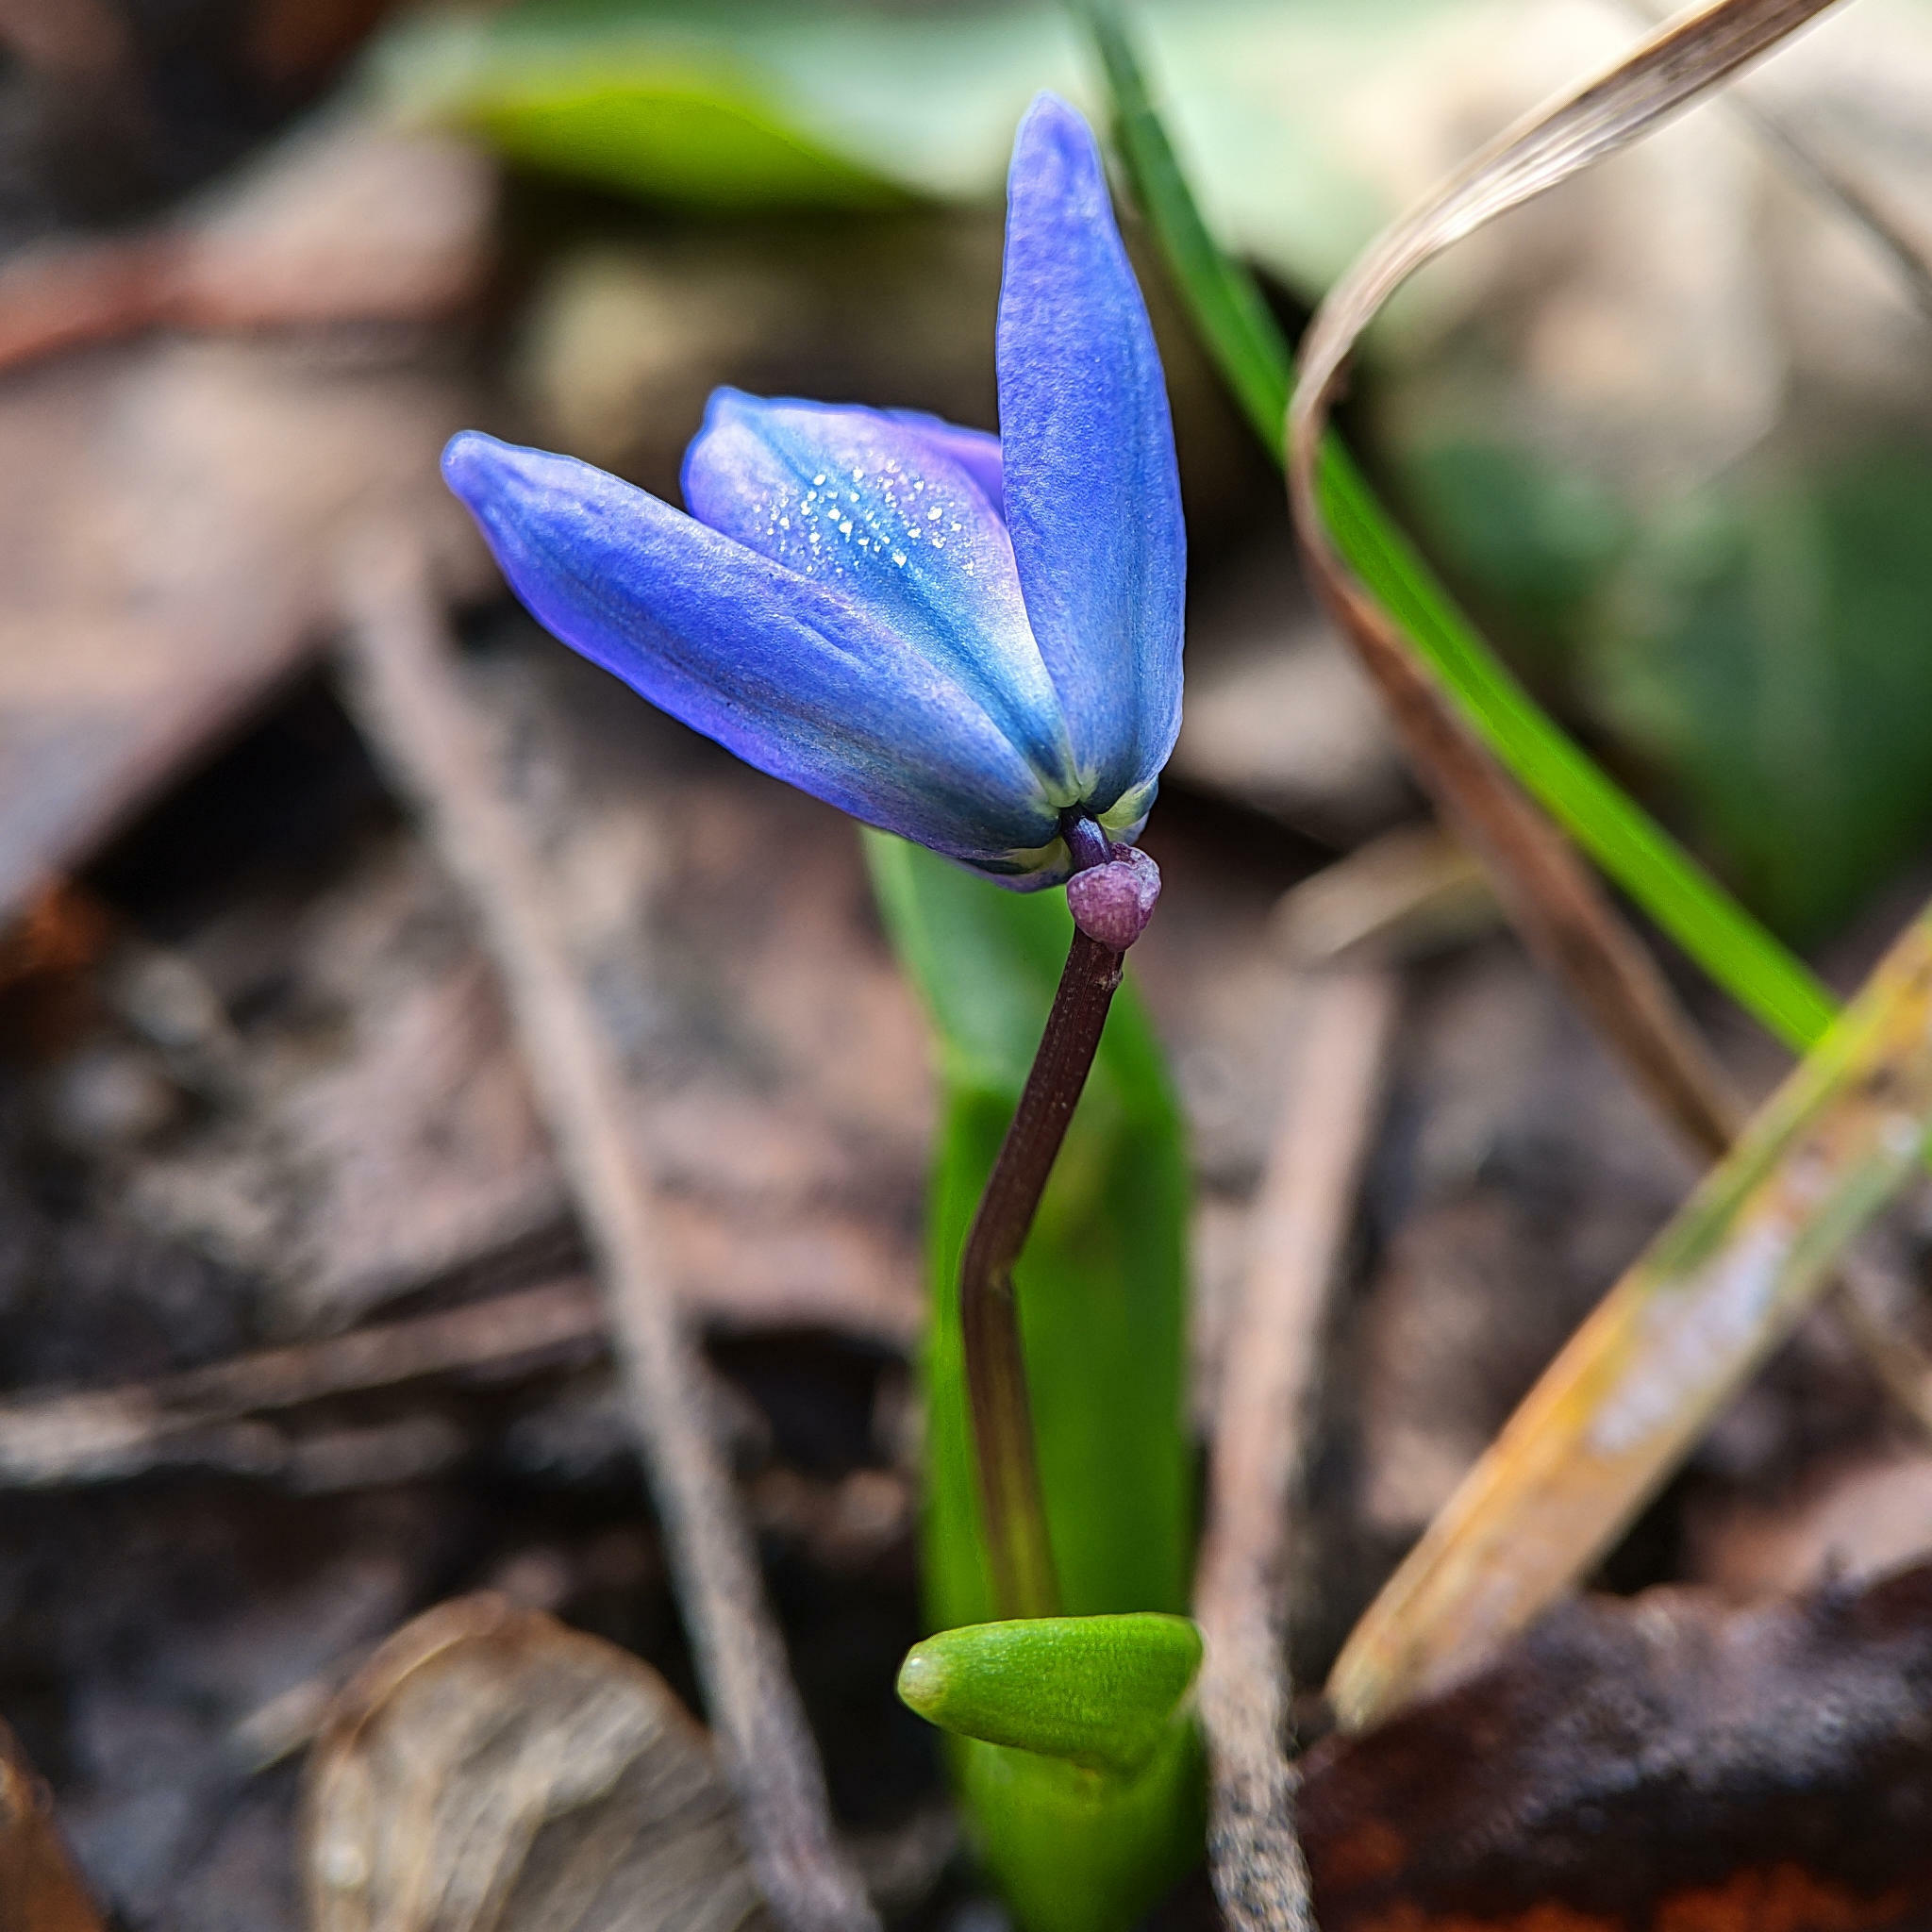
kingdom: Plantae
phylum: Tracheophyta
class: Liliopsida
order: Asparagales
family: Asparagaceae
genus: Scilla
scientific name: Scilla siberica
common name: Siberian squill
